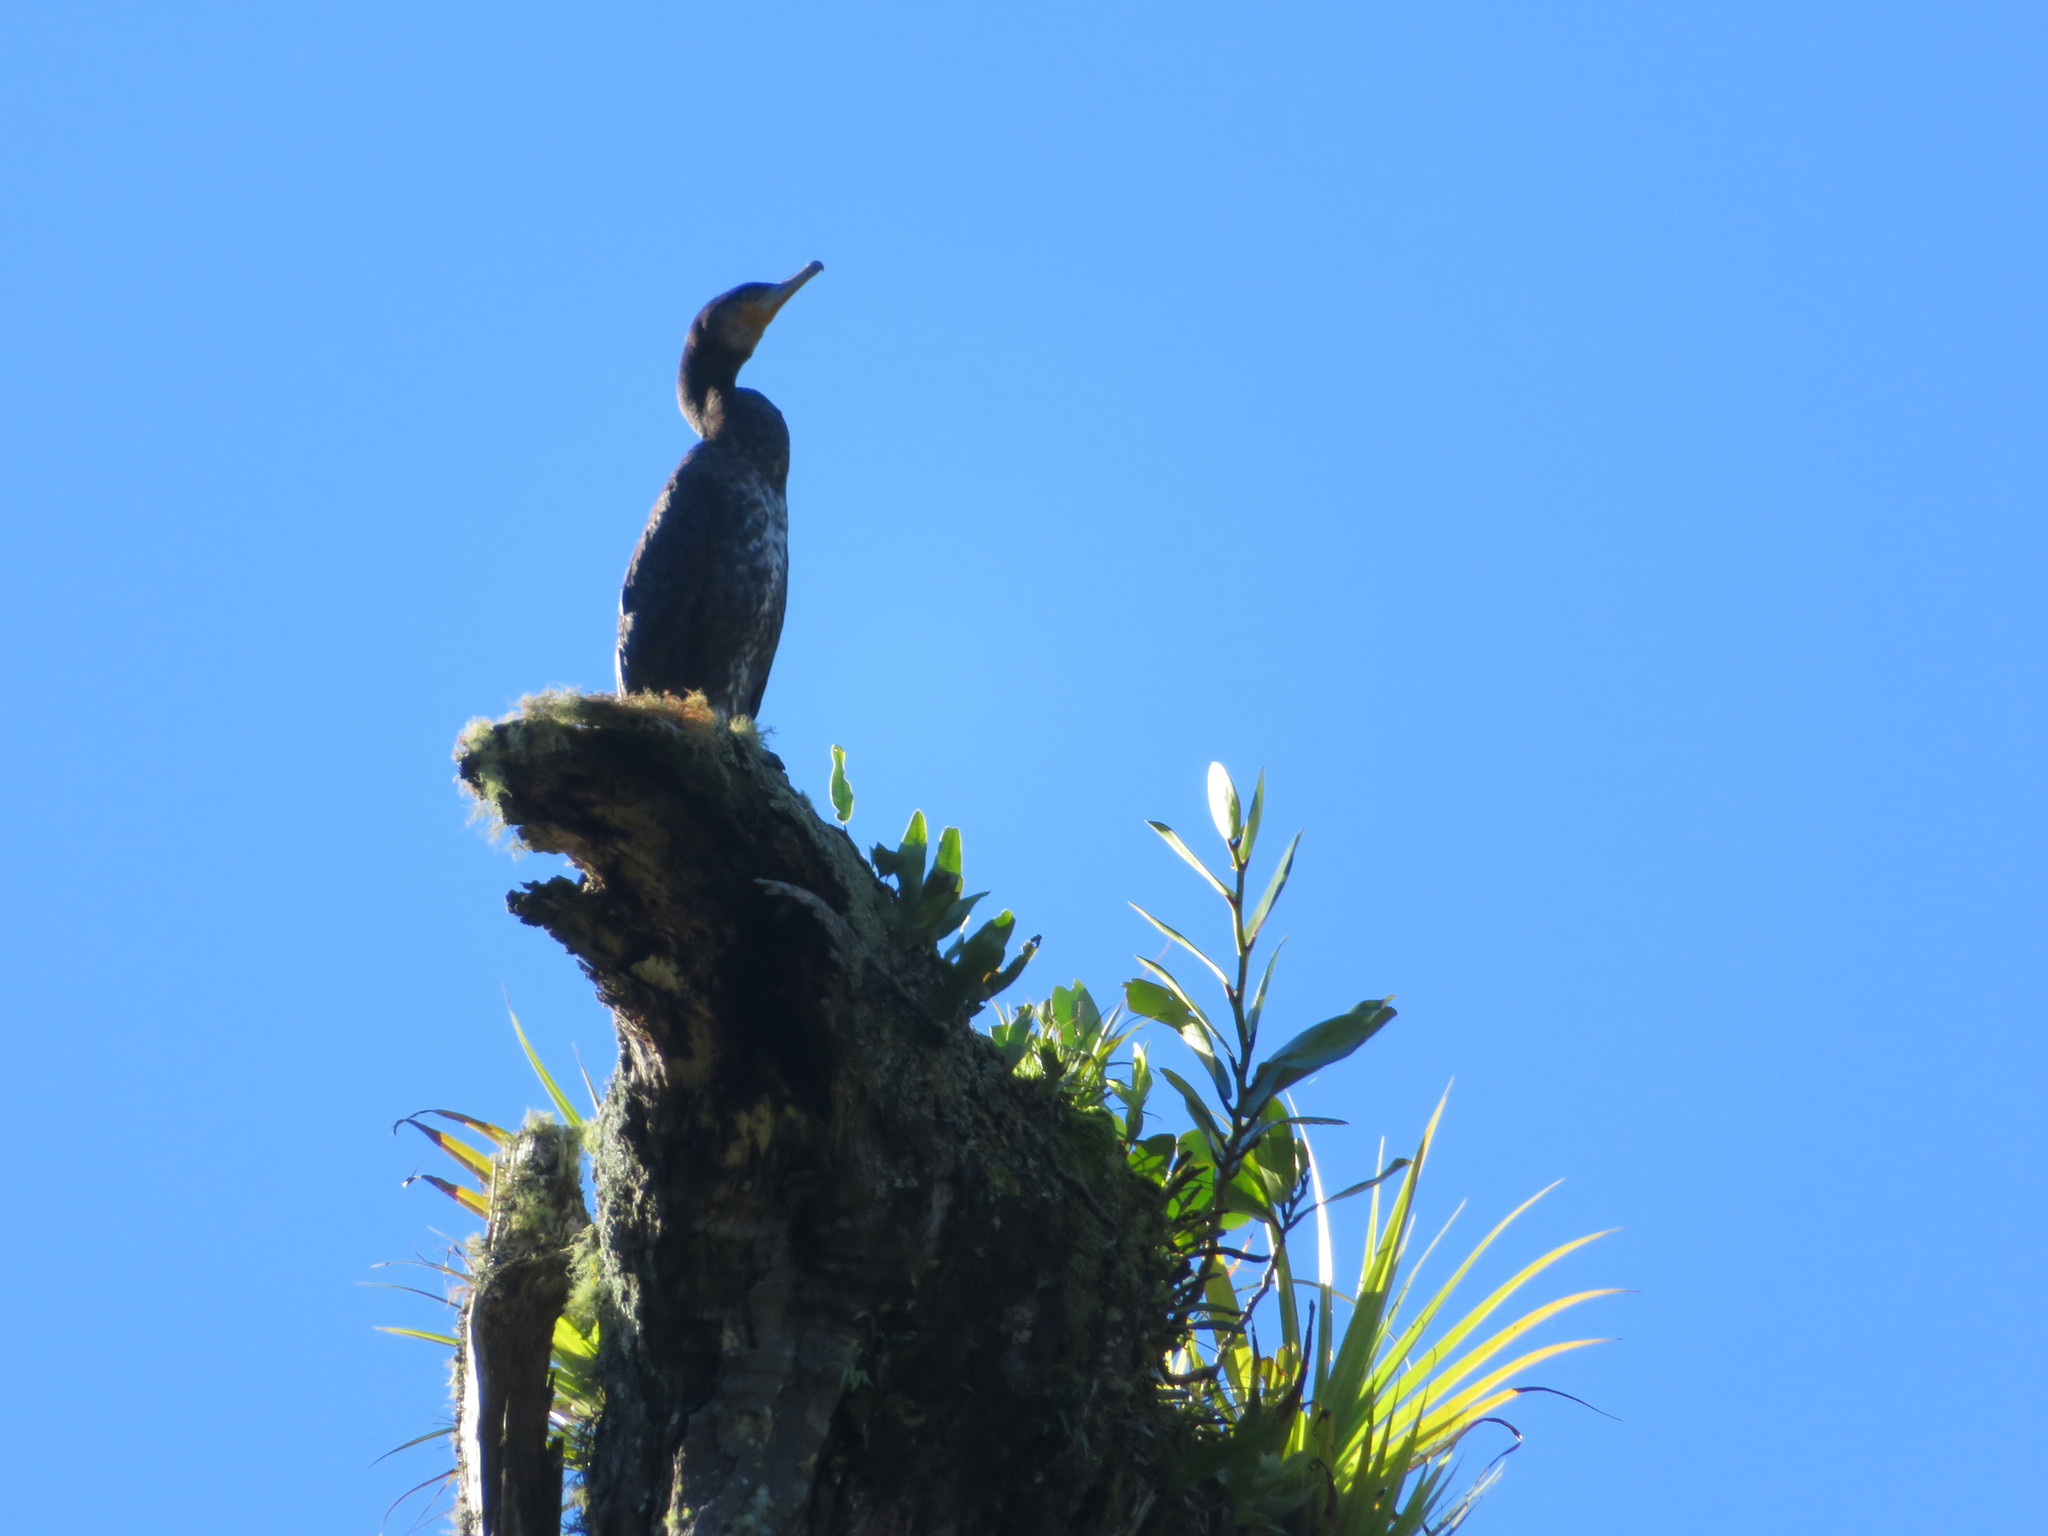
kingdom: Animalia
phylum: Chordata
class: Aves
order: Suliformes
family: Phalacrocoracidae
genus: Phalacrocorax
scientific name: Phalacrocorax carbo
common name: Great cormorant
